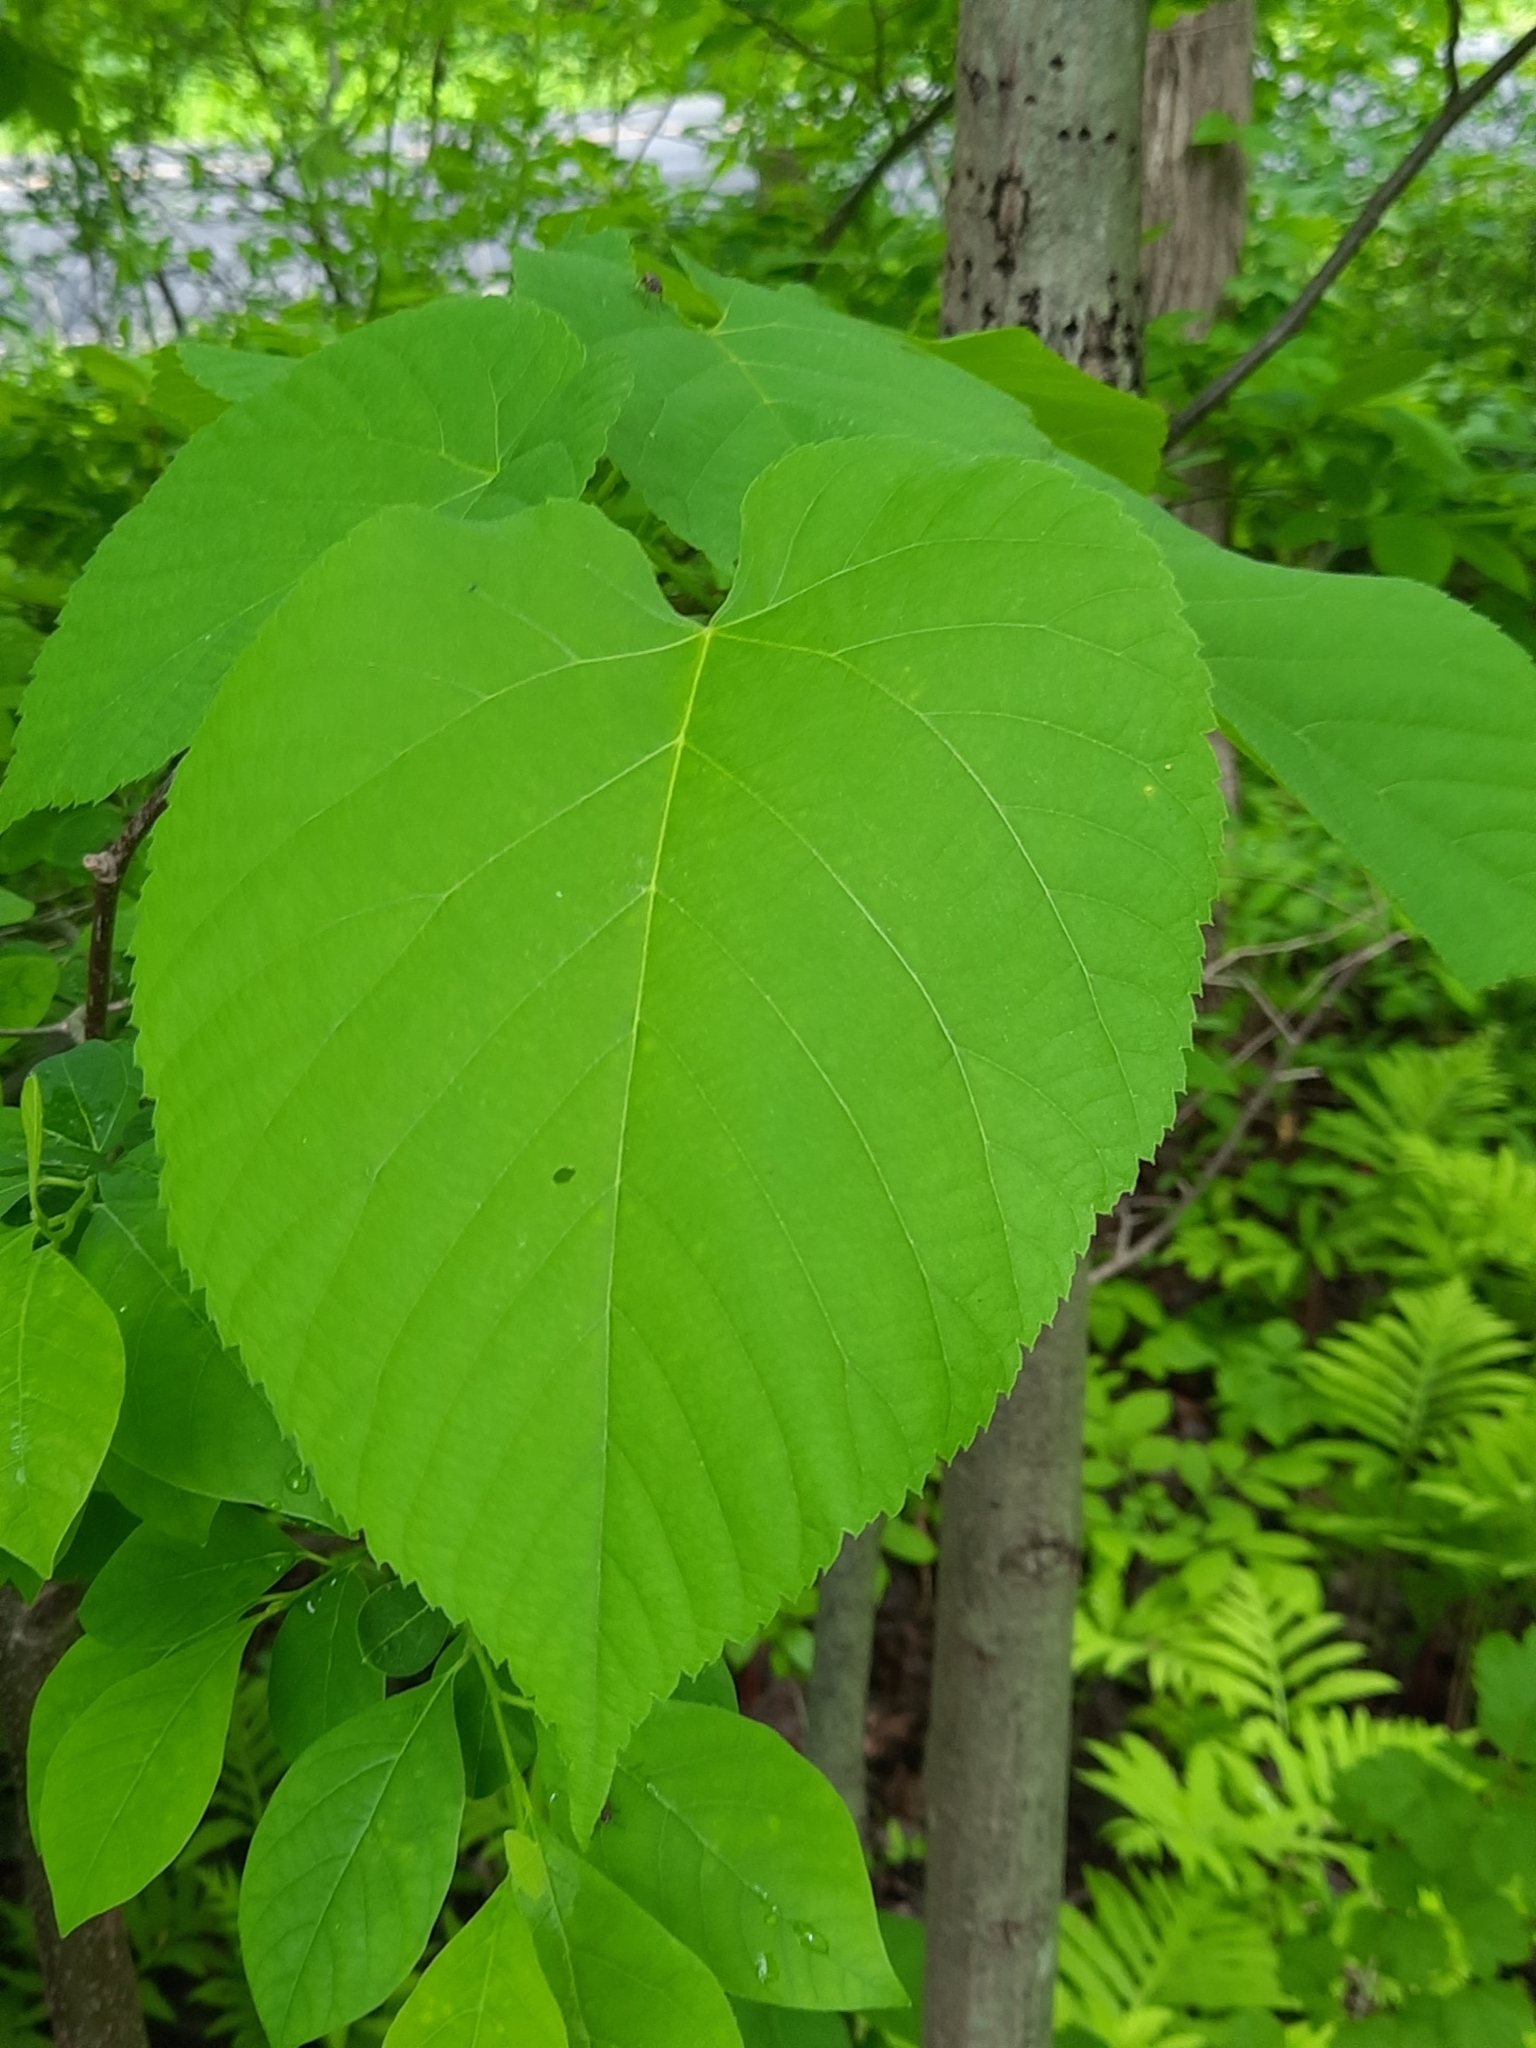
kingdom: Plantae
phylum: Tracheophyta
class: Magnoliopsida
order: Malvales
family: Malvaceae
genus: Tilia
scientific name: Tilia americana
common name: Basswood
